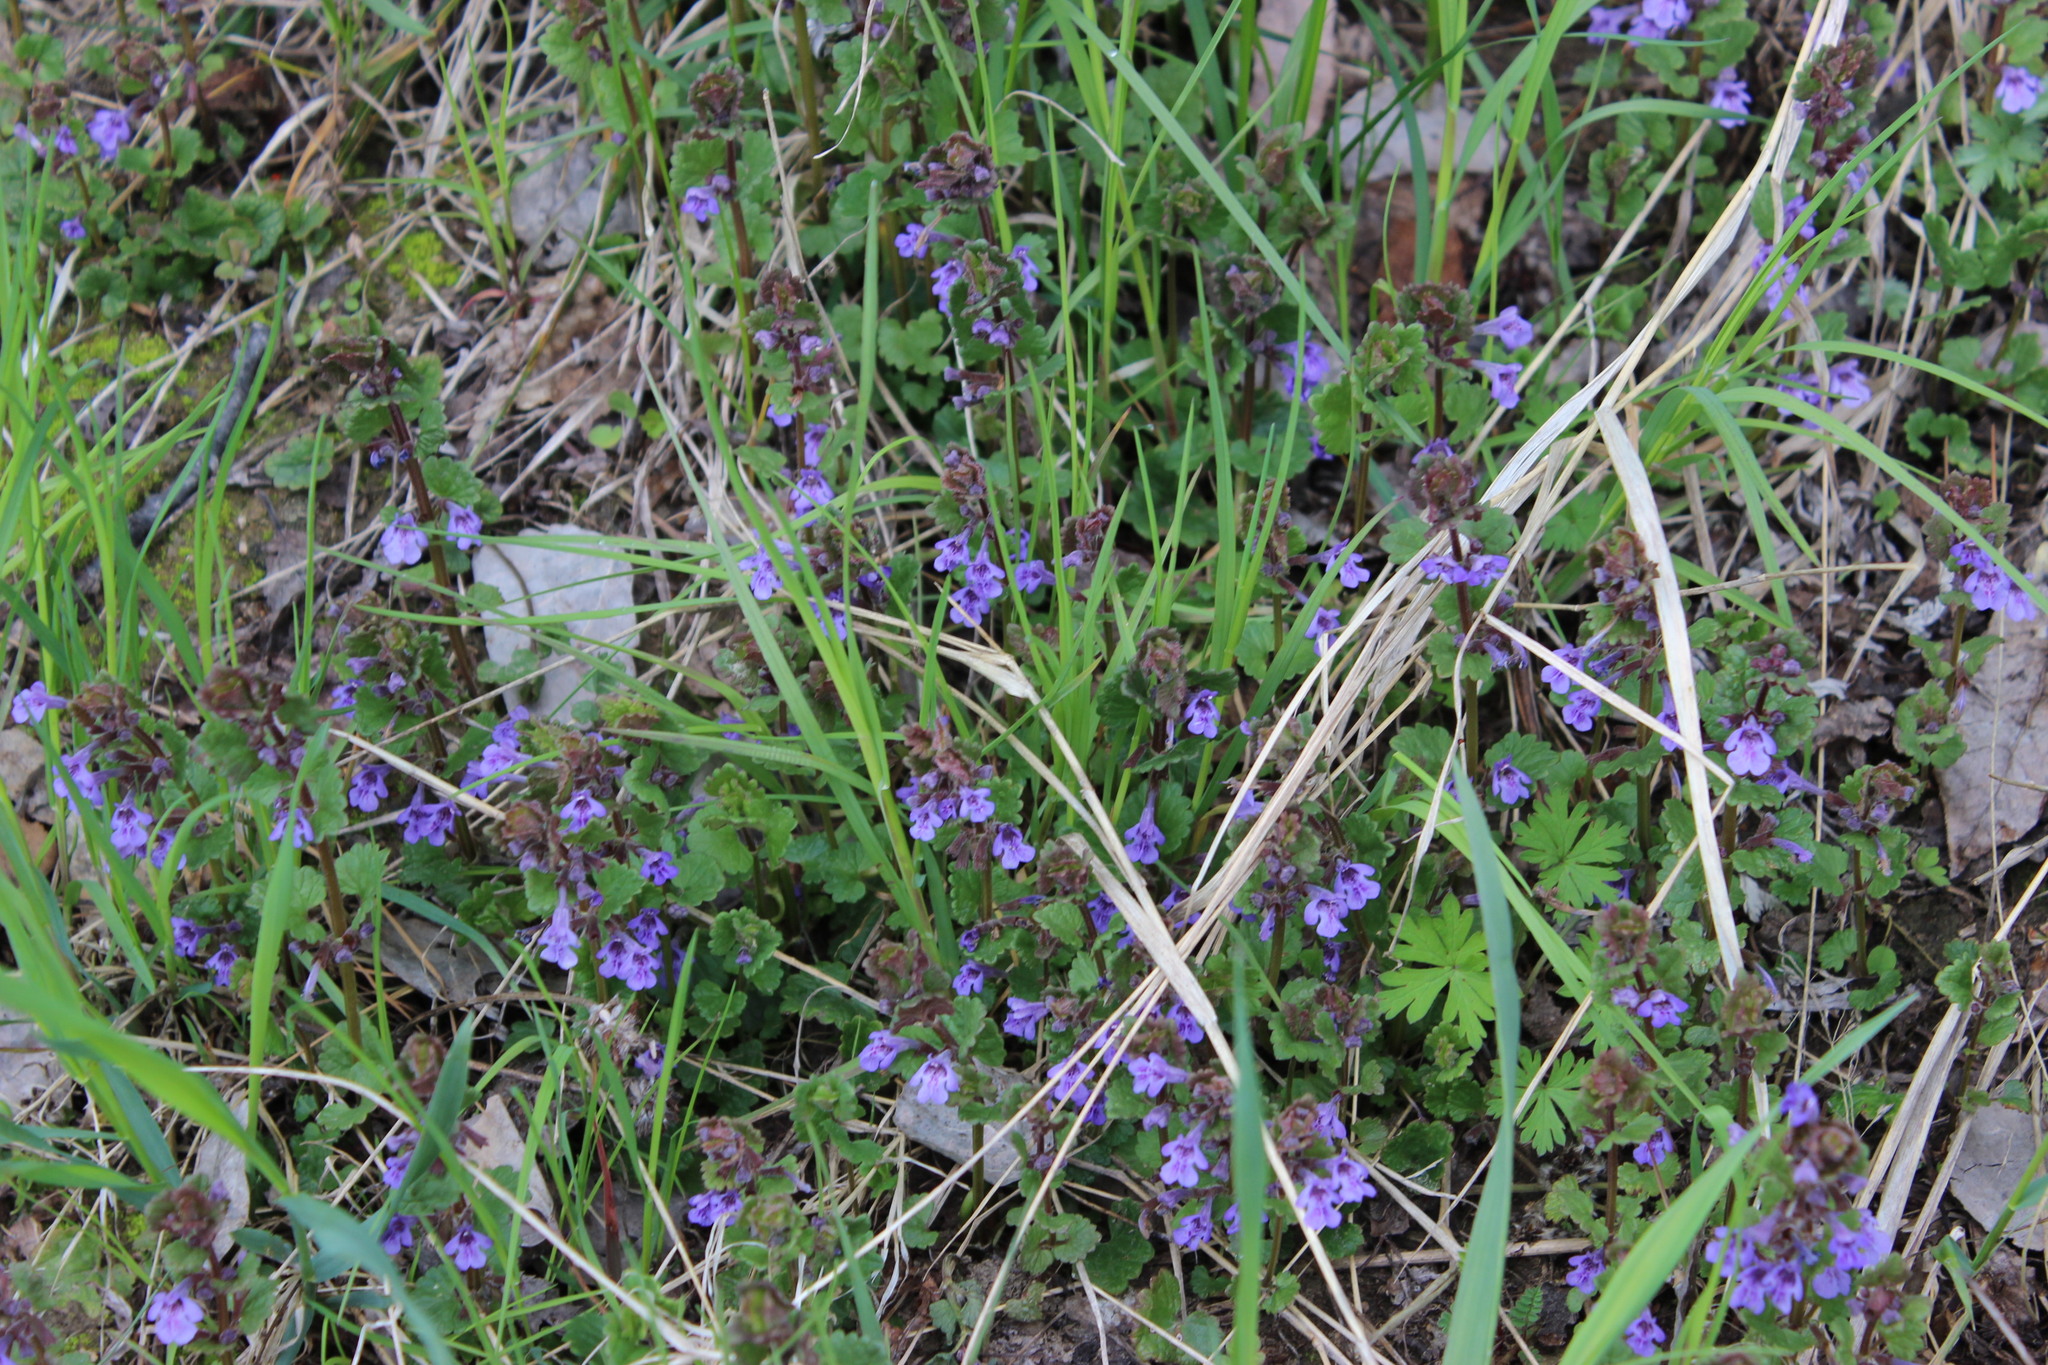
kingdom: Plantae
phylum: Tracheophyta
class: Magnoliopsida
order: Lamiales
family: Lamiaceae
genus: Glechoma
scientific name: Glechoma hederacea
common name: Ground ivy
